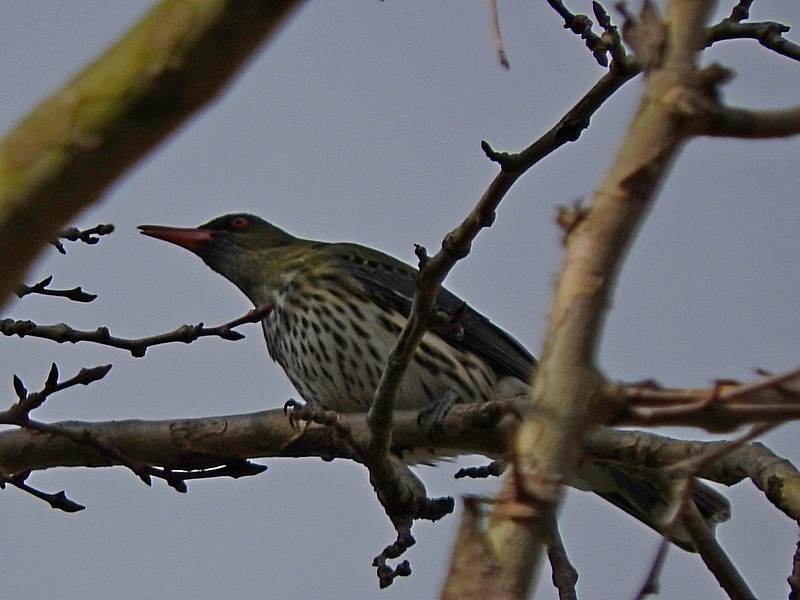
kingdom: Animalia
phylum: Chordata
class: Aves
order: Passeriformes
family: Oriolidae
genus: Oriolus
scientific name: Oriolus sagittatus
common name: Olive-backed oriole
